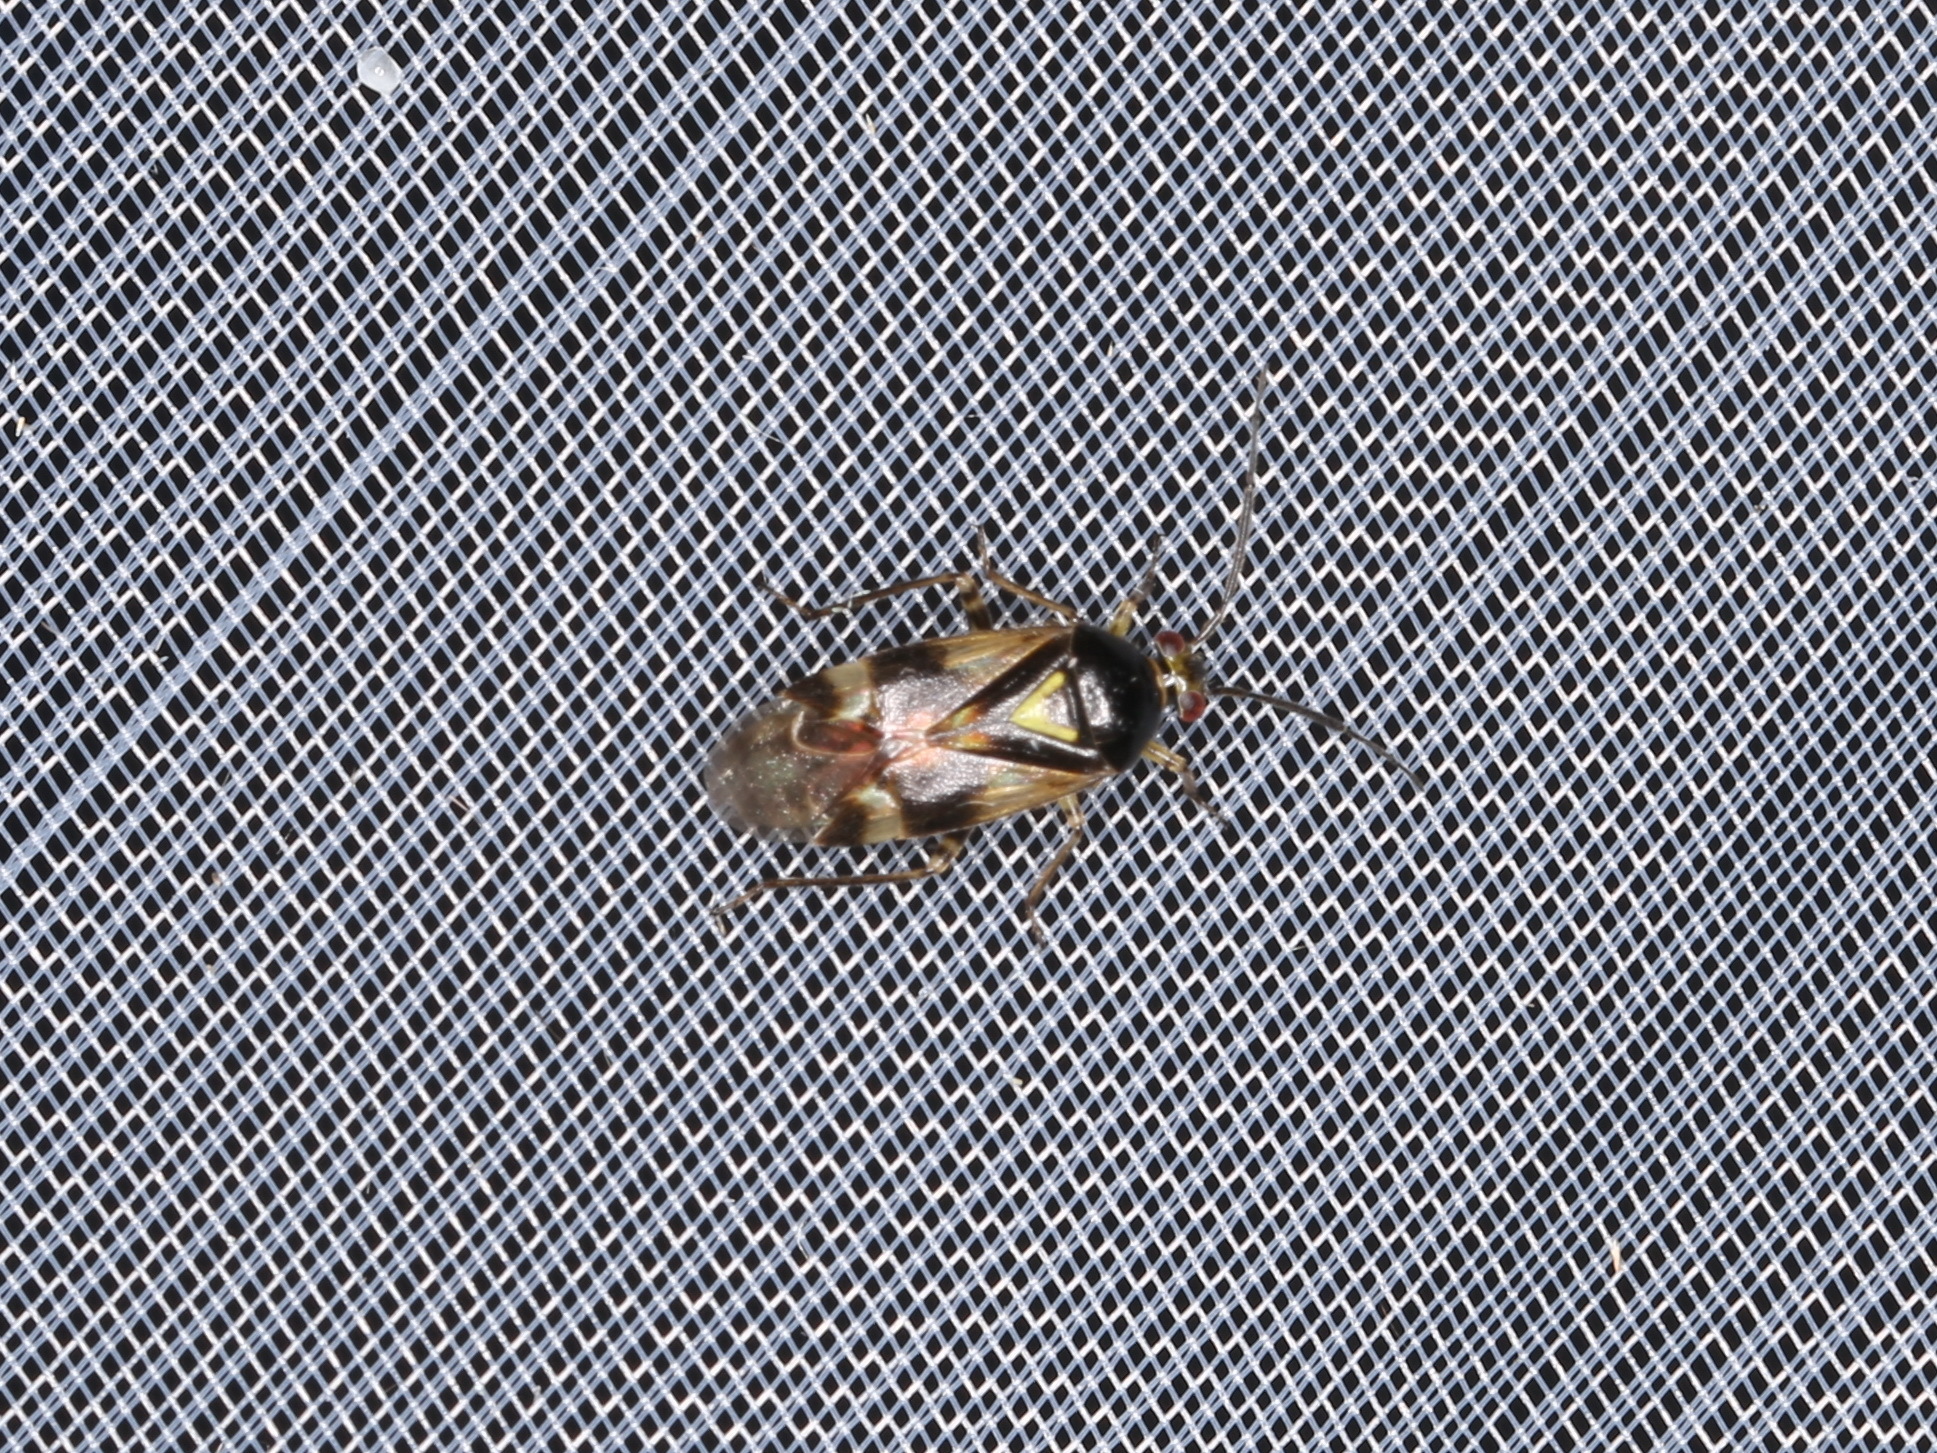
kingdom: Animalia
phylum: Arthropoda
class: Insecta
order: Hemiptera
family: Miridae
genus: Orthops
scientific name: Orthops basalis
